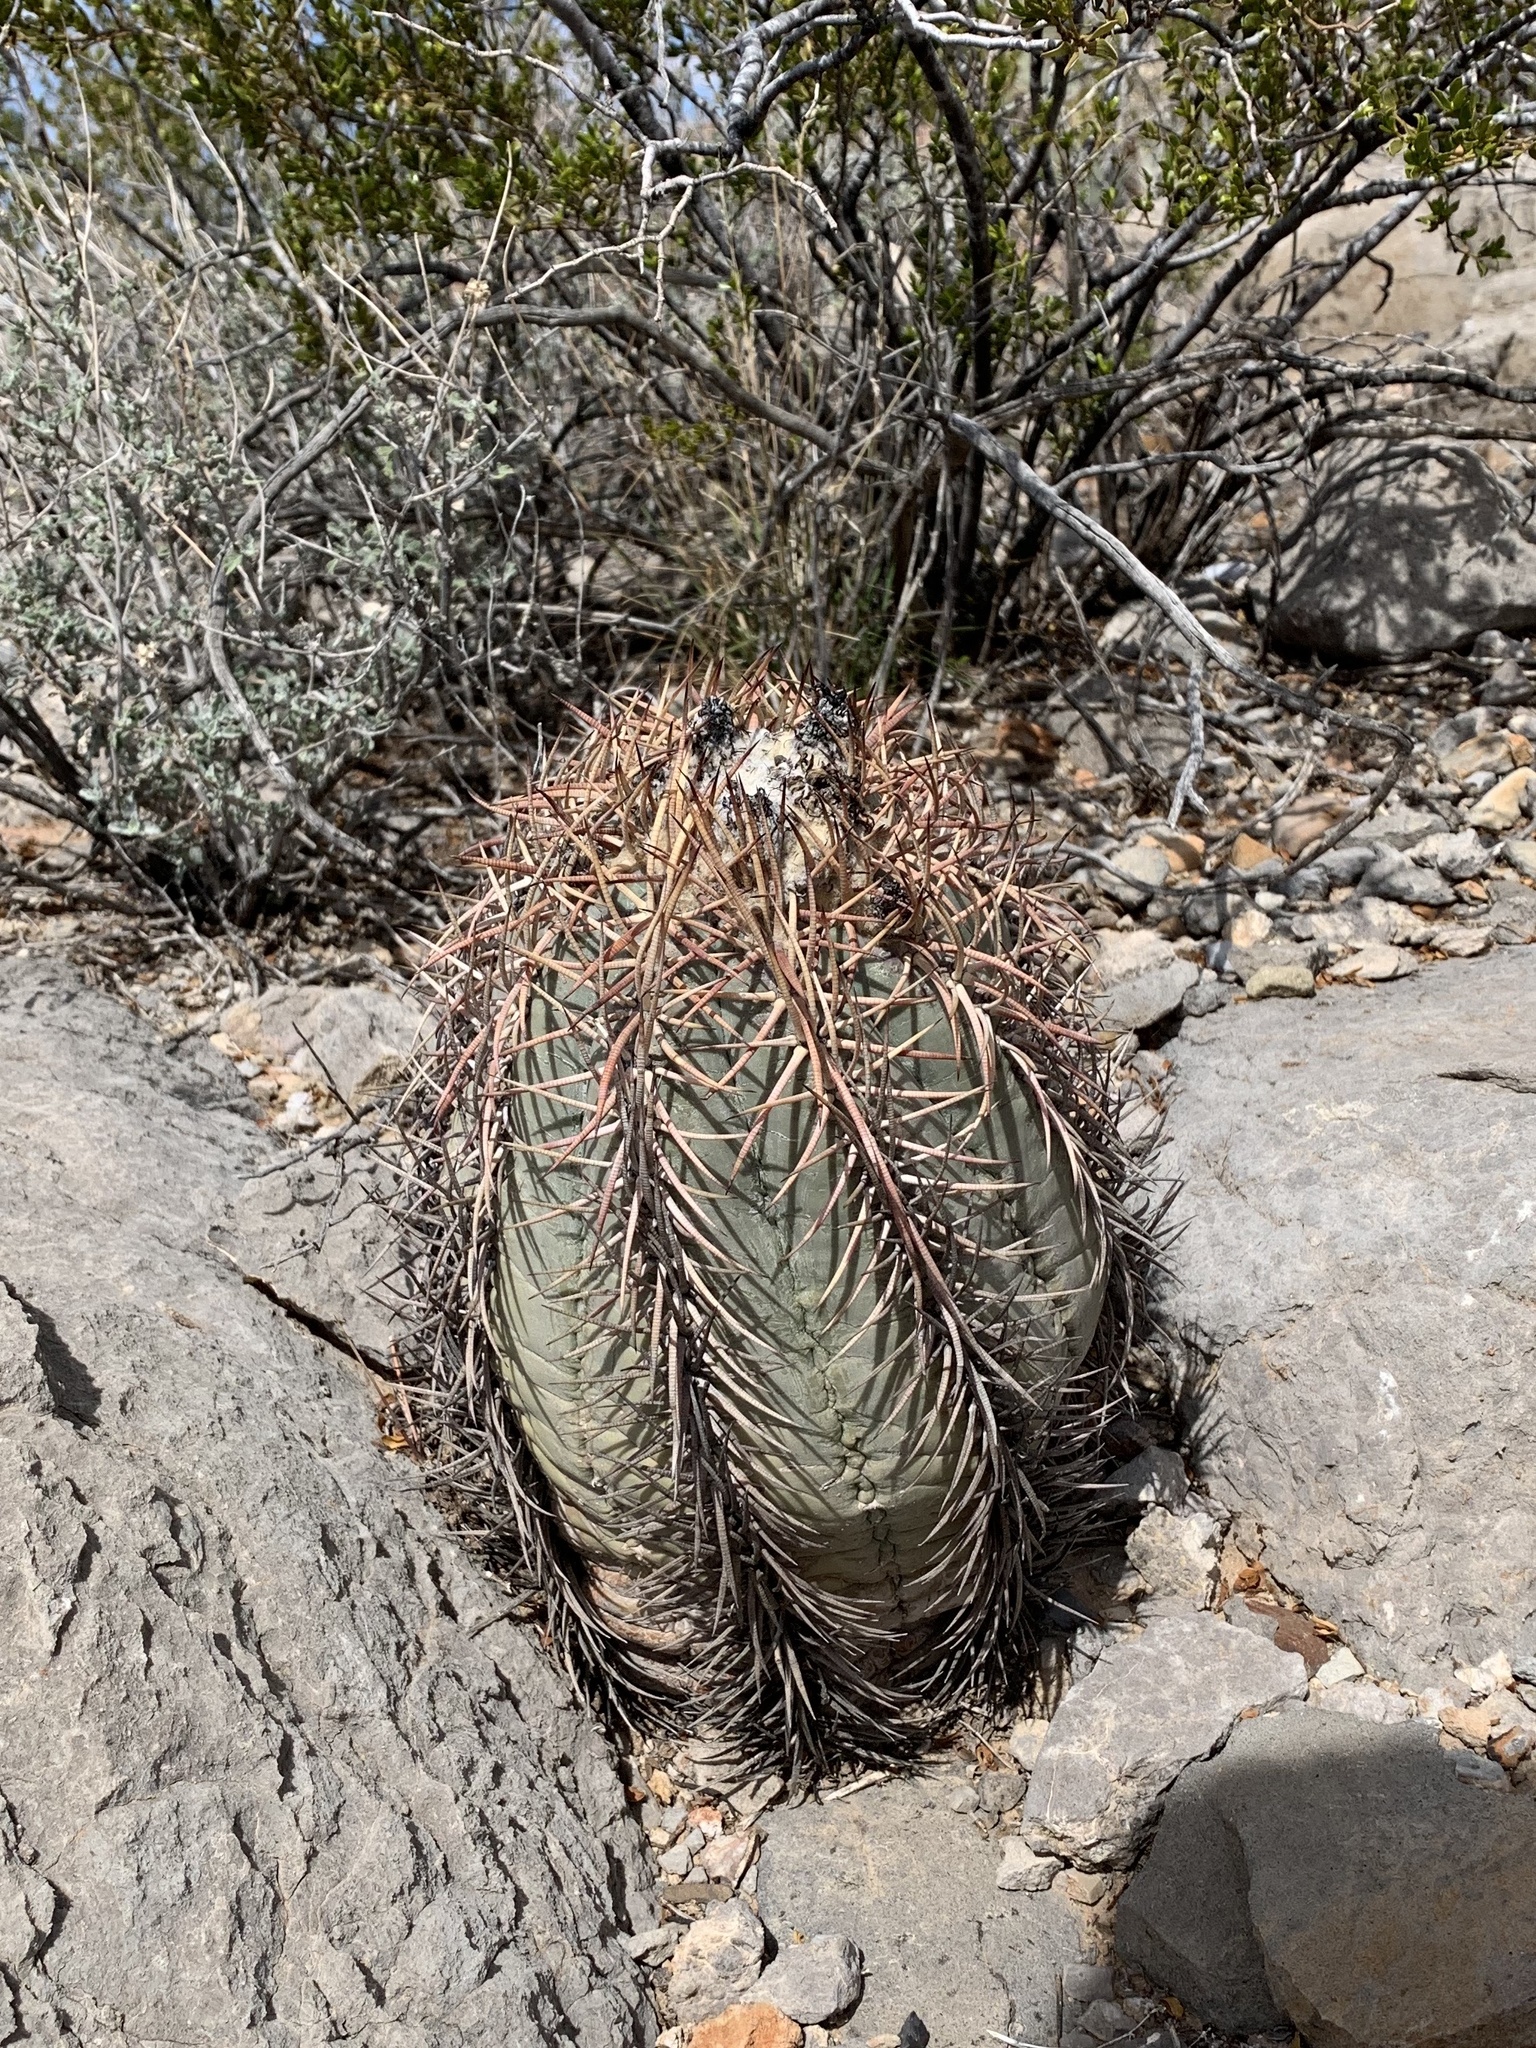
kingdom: Plantae
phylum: Tracheophyta
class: Magnoliopsida
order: Caryophyllales
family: Cactaceae
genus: Echinocactus
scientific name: Echinocactus horizonthalonius
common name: Devilshead
